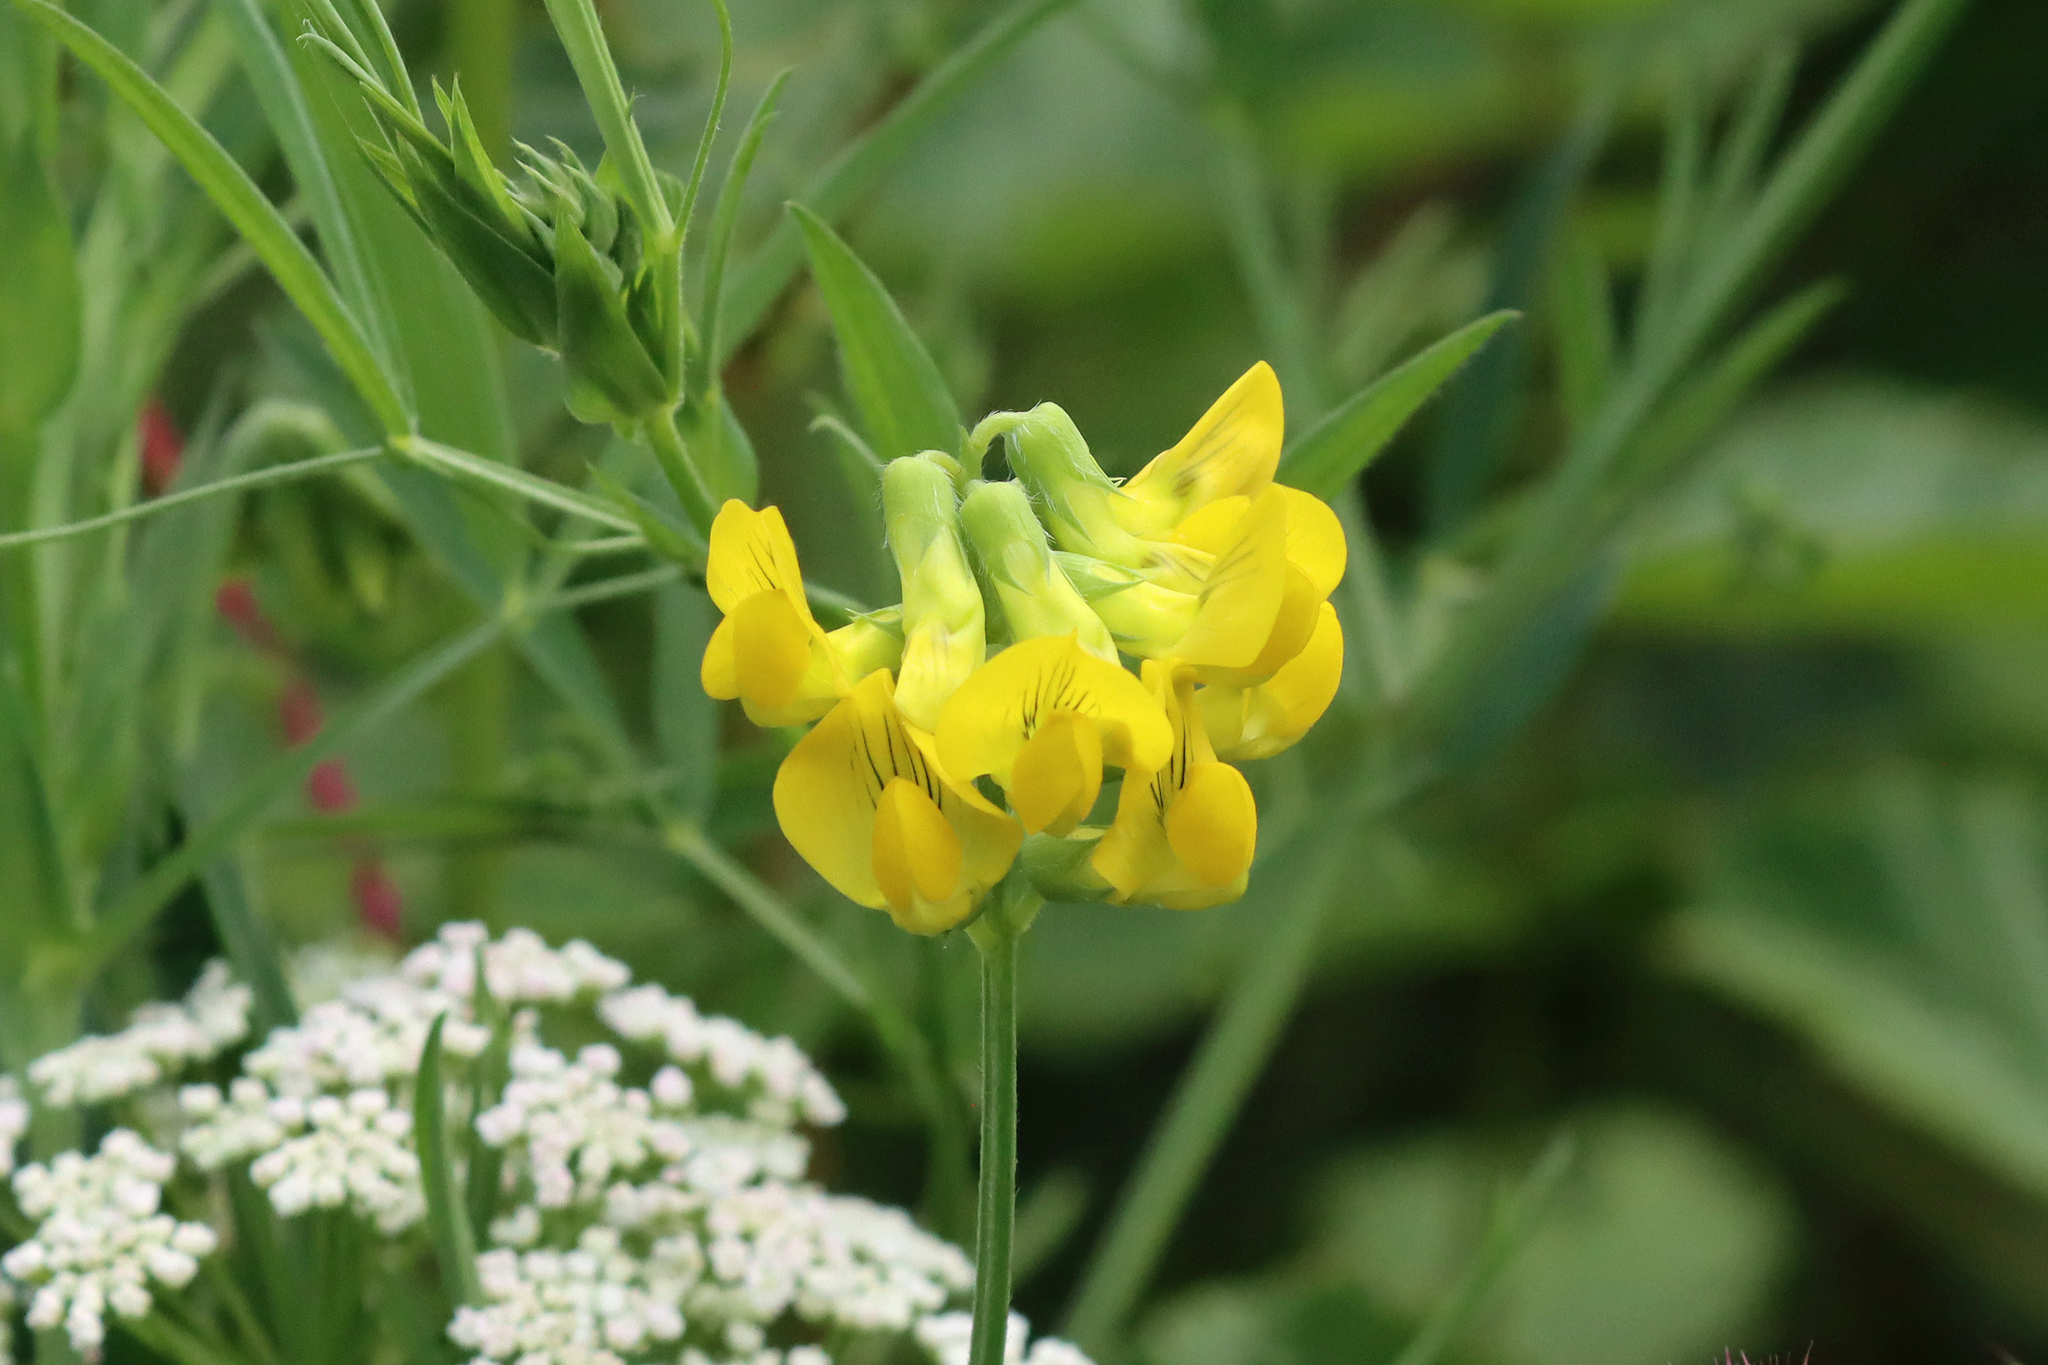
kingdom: Plantae
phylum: Tracheophyta
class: Magnoliopsida
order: Fabales
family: Fabaceae
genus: Lathyrus
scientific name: Lathyrus pratensis
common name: Meadow vetchling
